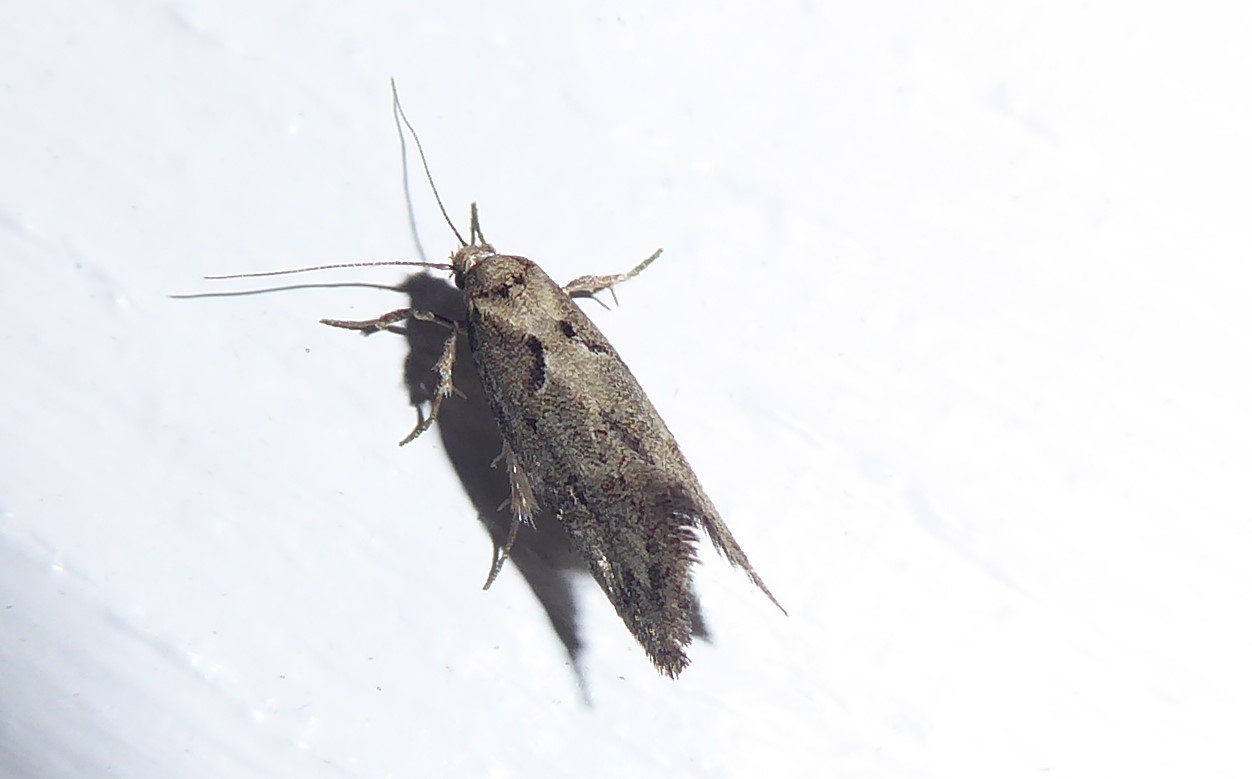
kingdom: Animalia
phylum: Arthropoda
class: Insecta
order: Lepidoptera
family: Oecophoridae
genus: Tingena
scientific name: Tingena brachyacma
